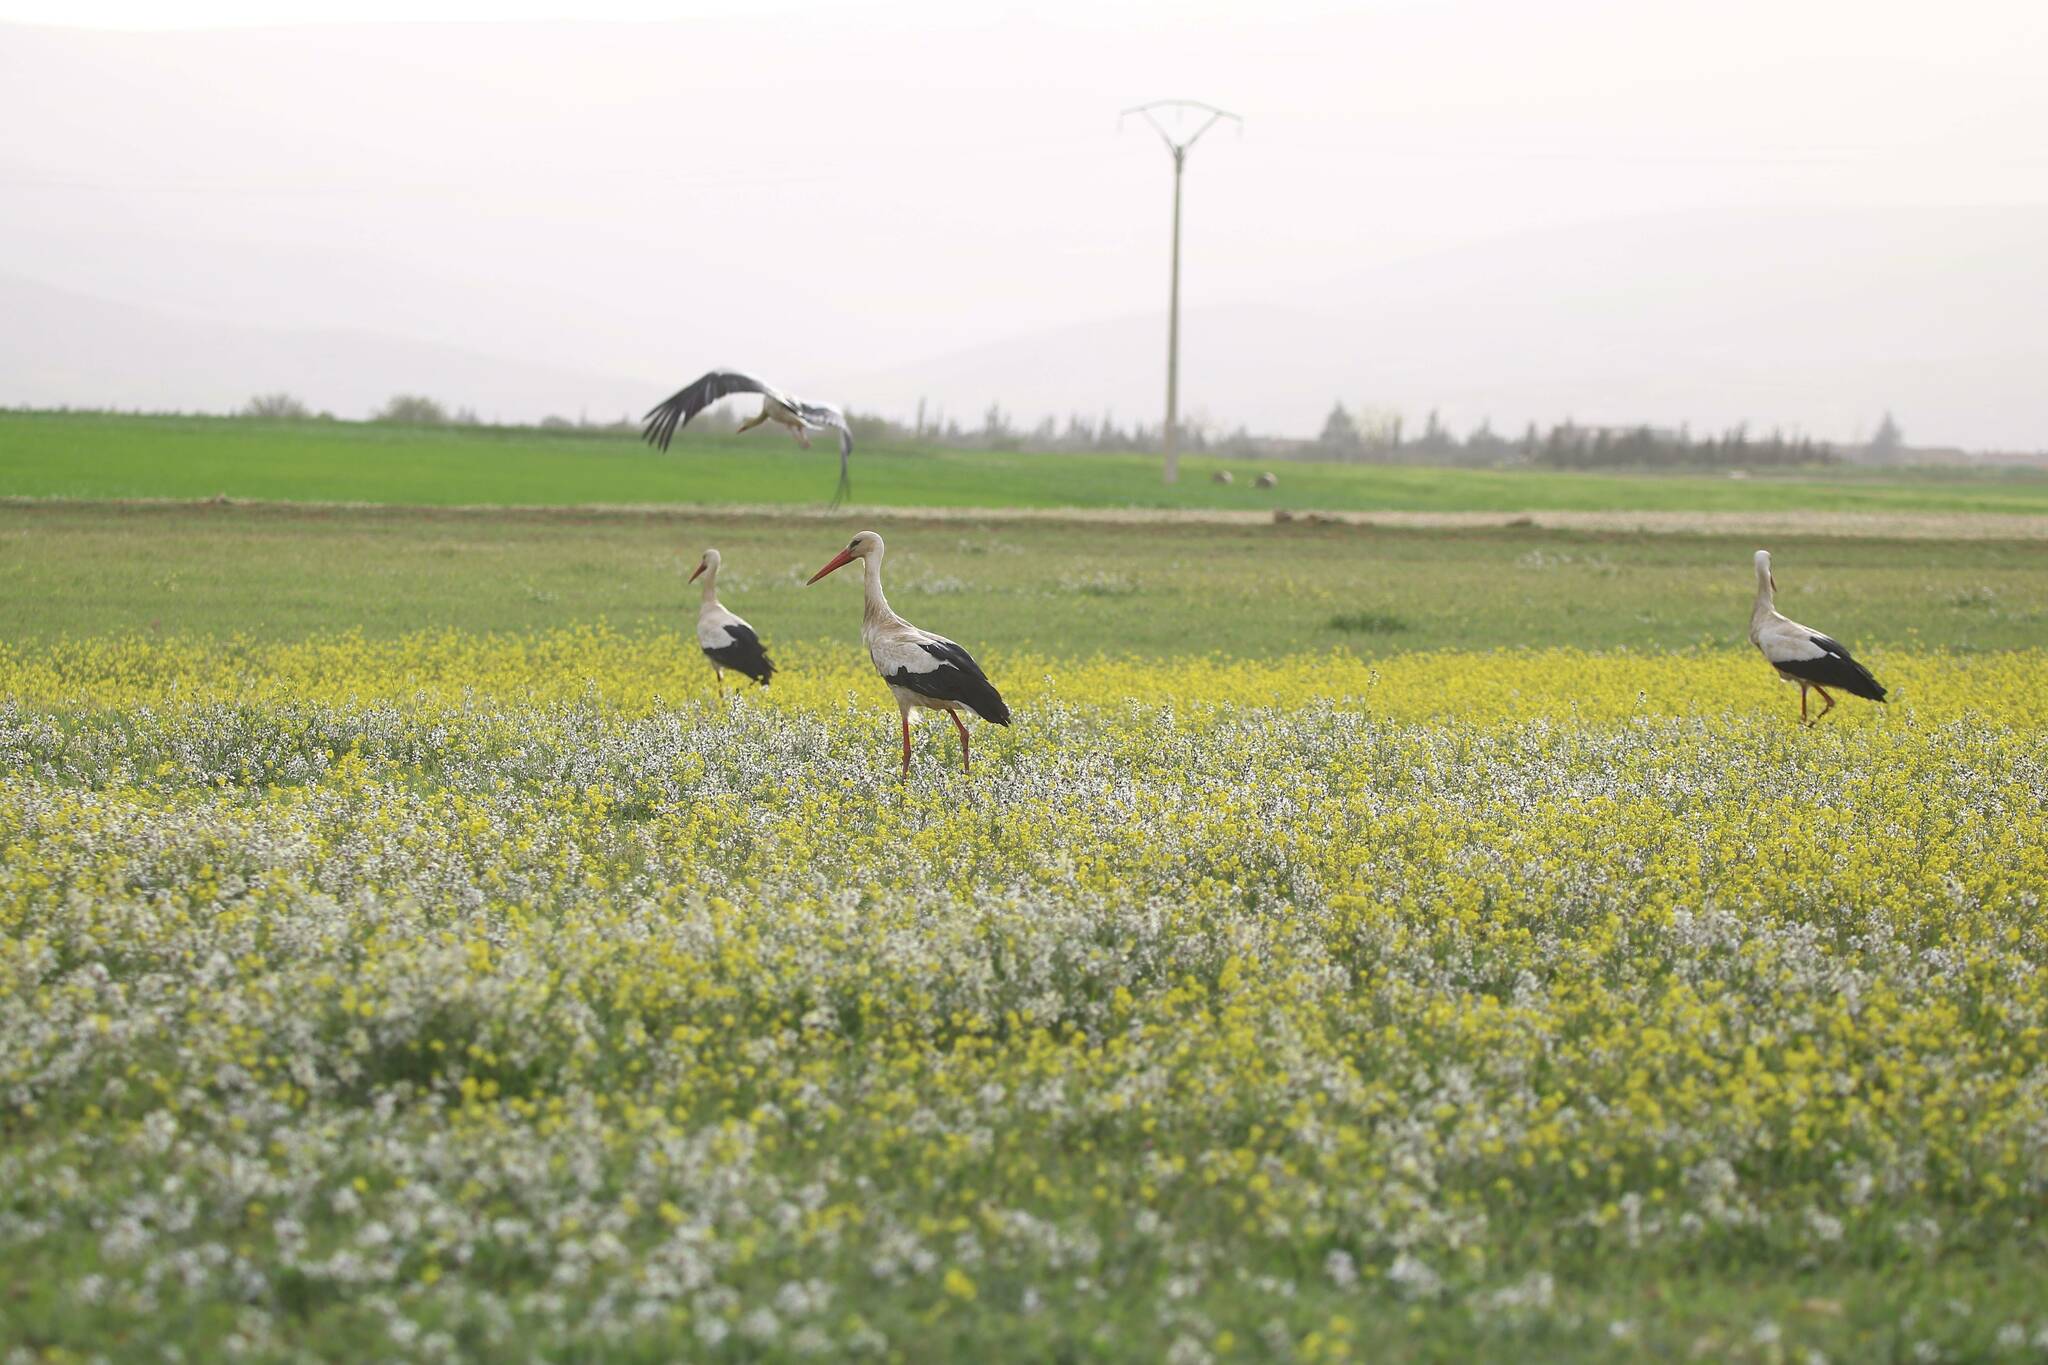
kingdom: Animalia
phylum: Chordata
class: Aves
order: Ciconiiformes
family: Ciconiidae
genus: Ciconia
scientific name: Ciconia ciconia
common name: White stork
